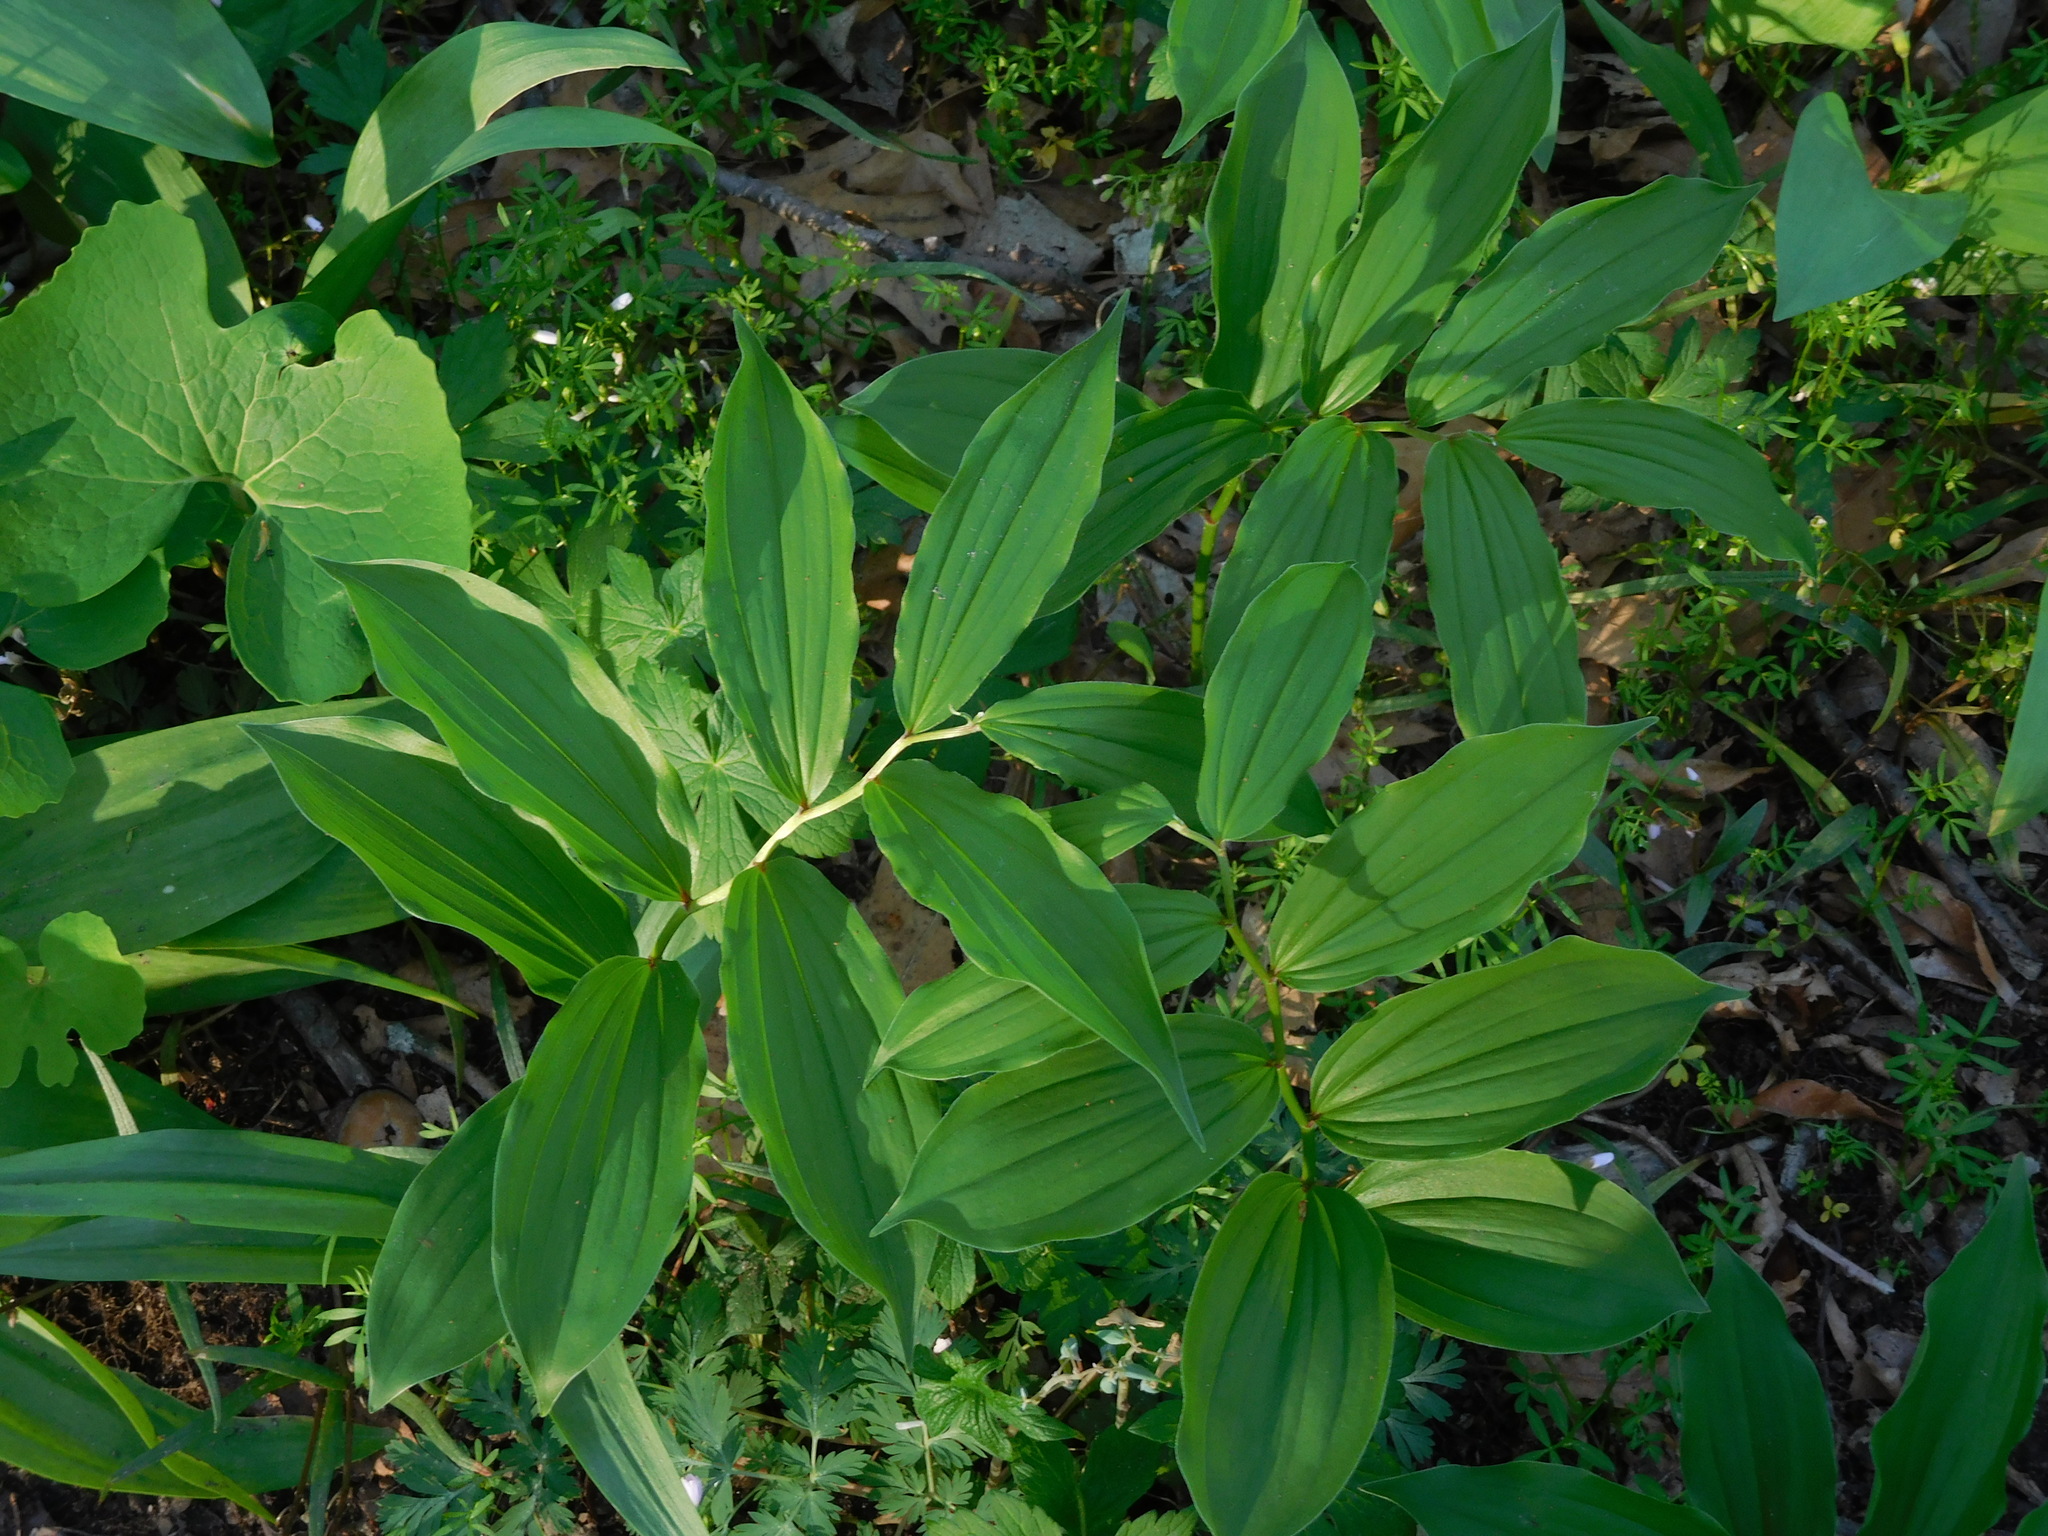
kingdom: Plantae
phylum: Tracheophyta
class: Liliopsida
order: Asparagales
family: Asparagaceae
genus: Maianthemum
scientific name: Maianthemum racemosum
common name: False spikenard
